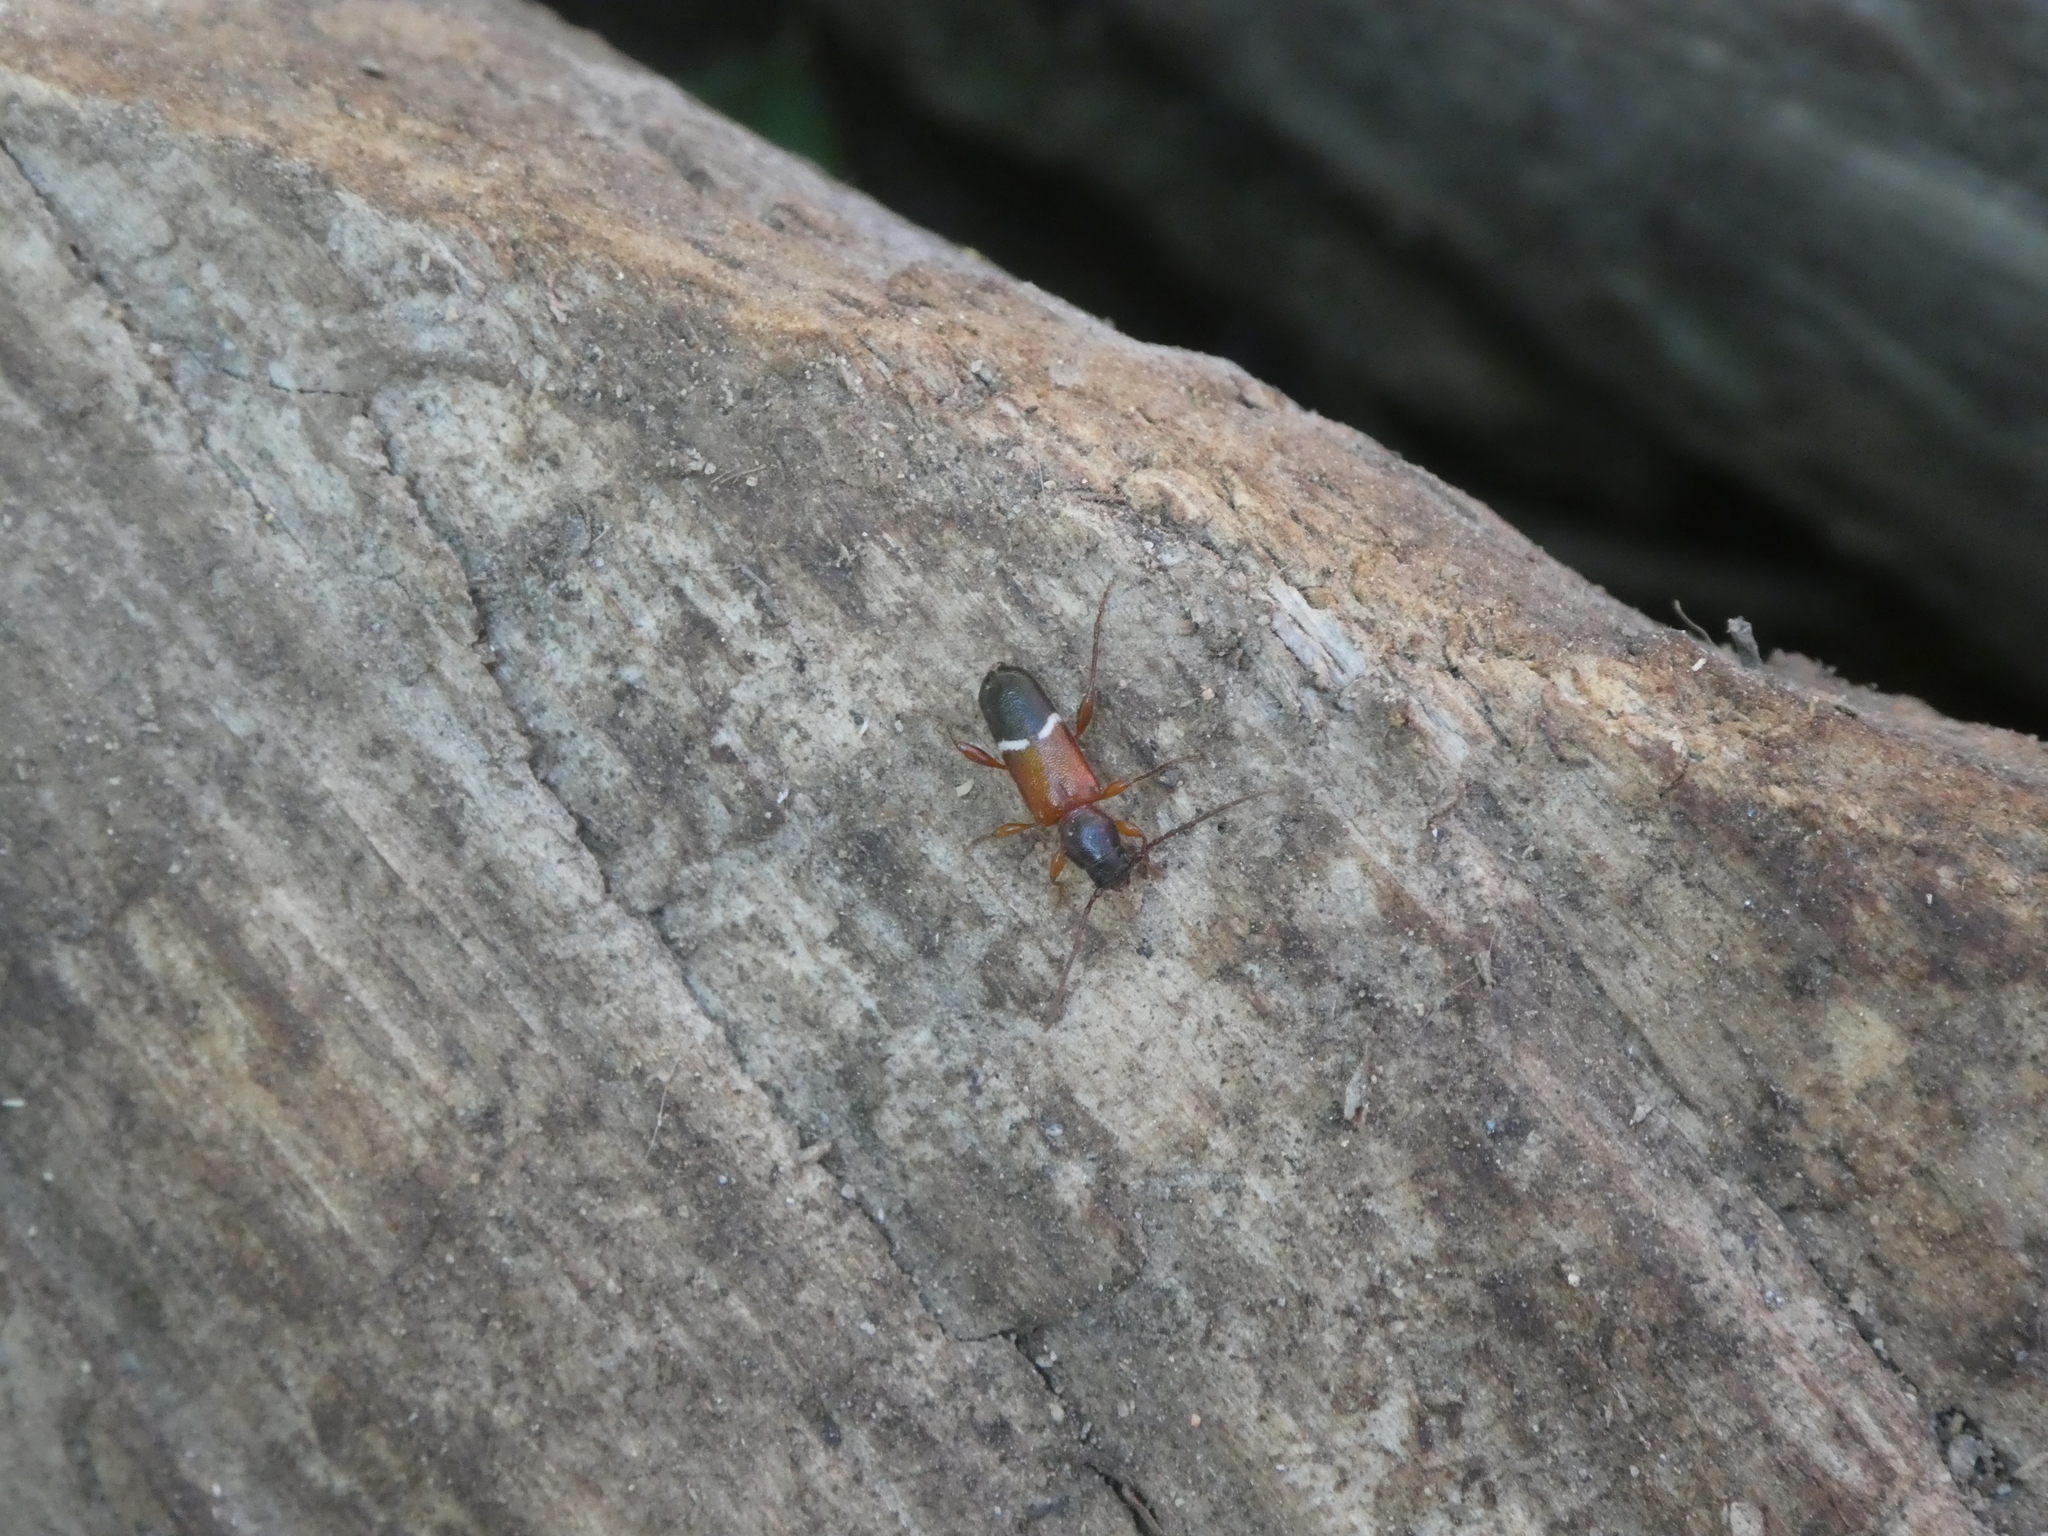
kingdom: Animalia
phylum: Arthropoda
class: Insecta
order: Coleoptera
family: Cerambycidae
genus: Phymatodes
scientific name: Phymatodes vulneratus
